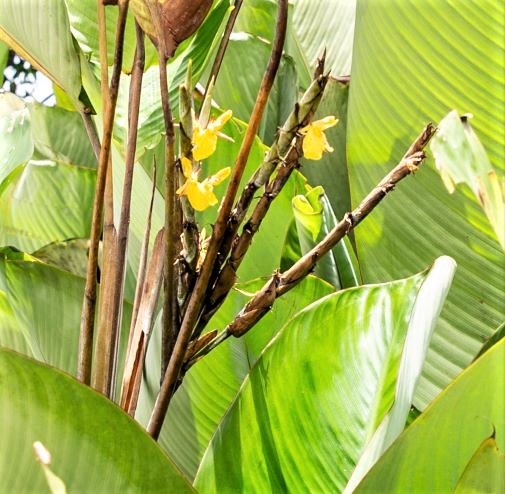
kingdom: Plantae
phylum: Tracheophyta
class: Liliopsida
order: Zingiberales
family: Marantaceae
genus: Ischnosiphon
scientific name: Ischnosiphon obliquus
